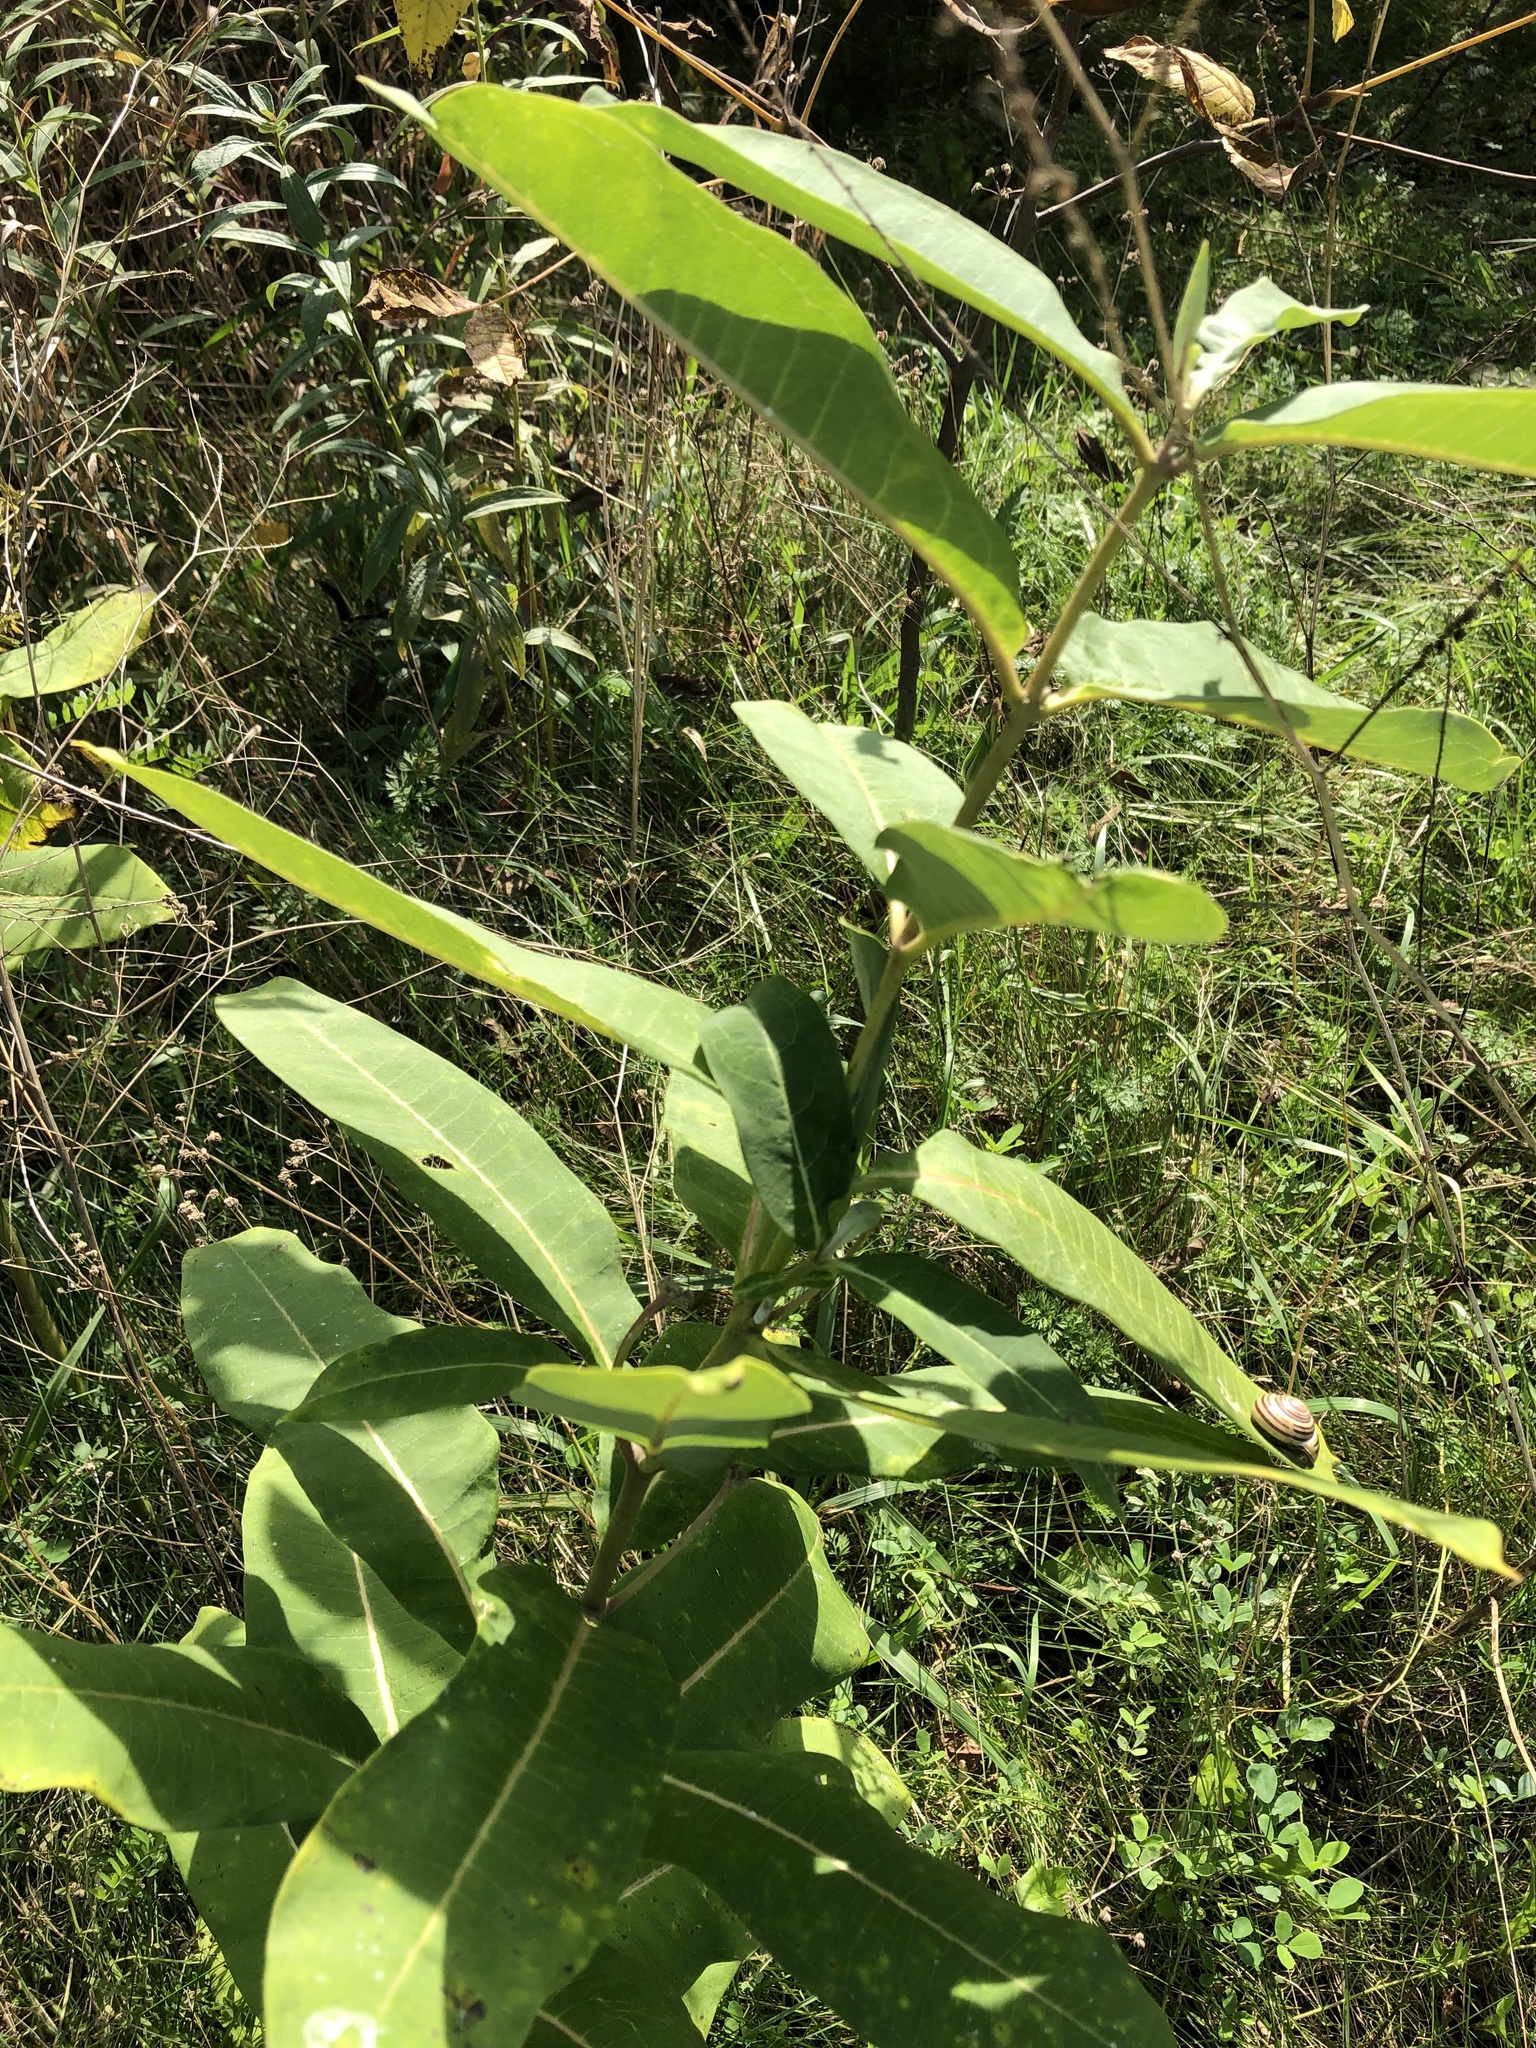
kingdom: Plantae
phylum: Tracheophyta
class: Magnoliopsida
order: Gentianales
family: Apocynaceae
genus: Asclepias
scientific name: Asclepias syriaca
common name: Common milkweed
